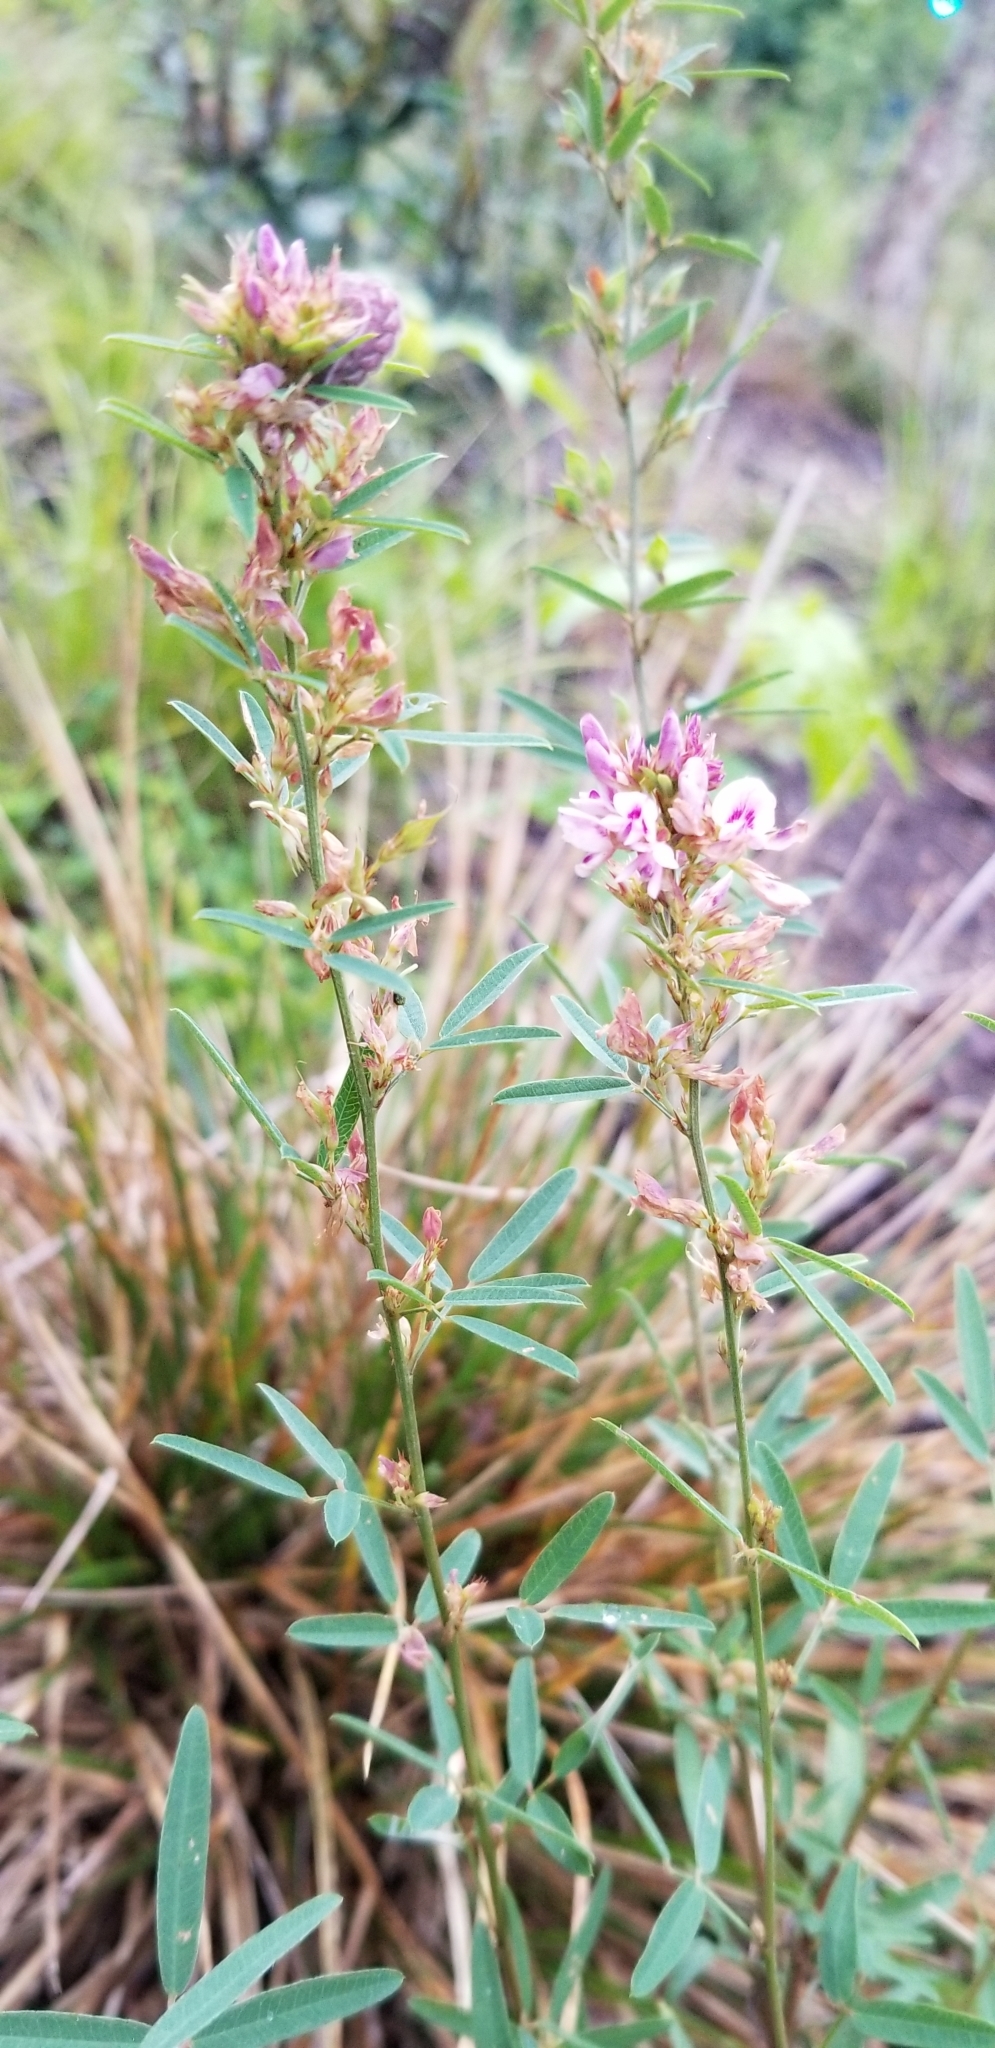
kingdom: Plantae
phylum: Tracheophyta
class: Magnoliopsida
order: Fabales
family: Fabaceae
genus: Lespedeza
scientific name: Lespedeza virginica
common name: Slender bush-clover
